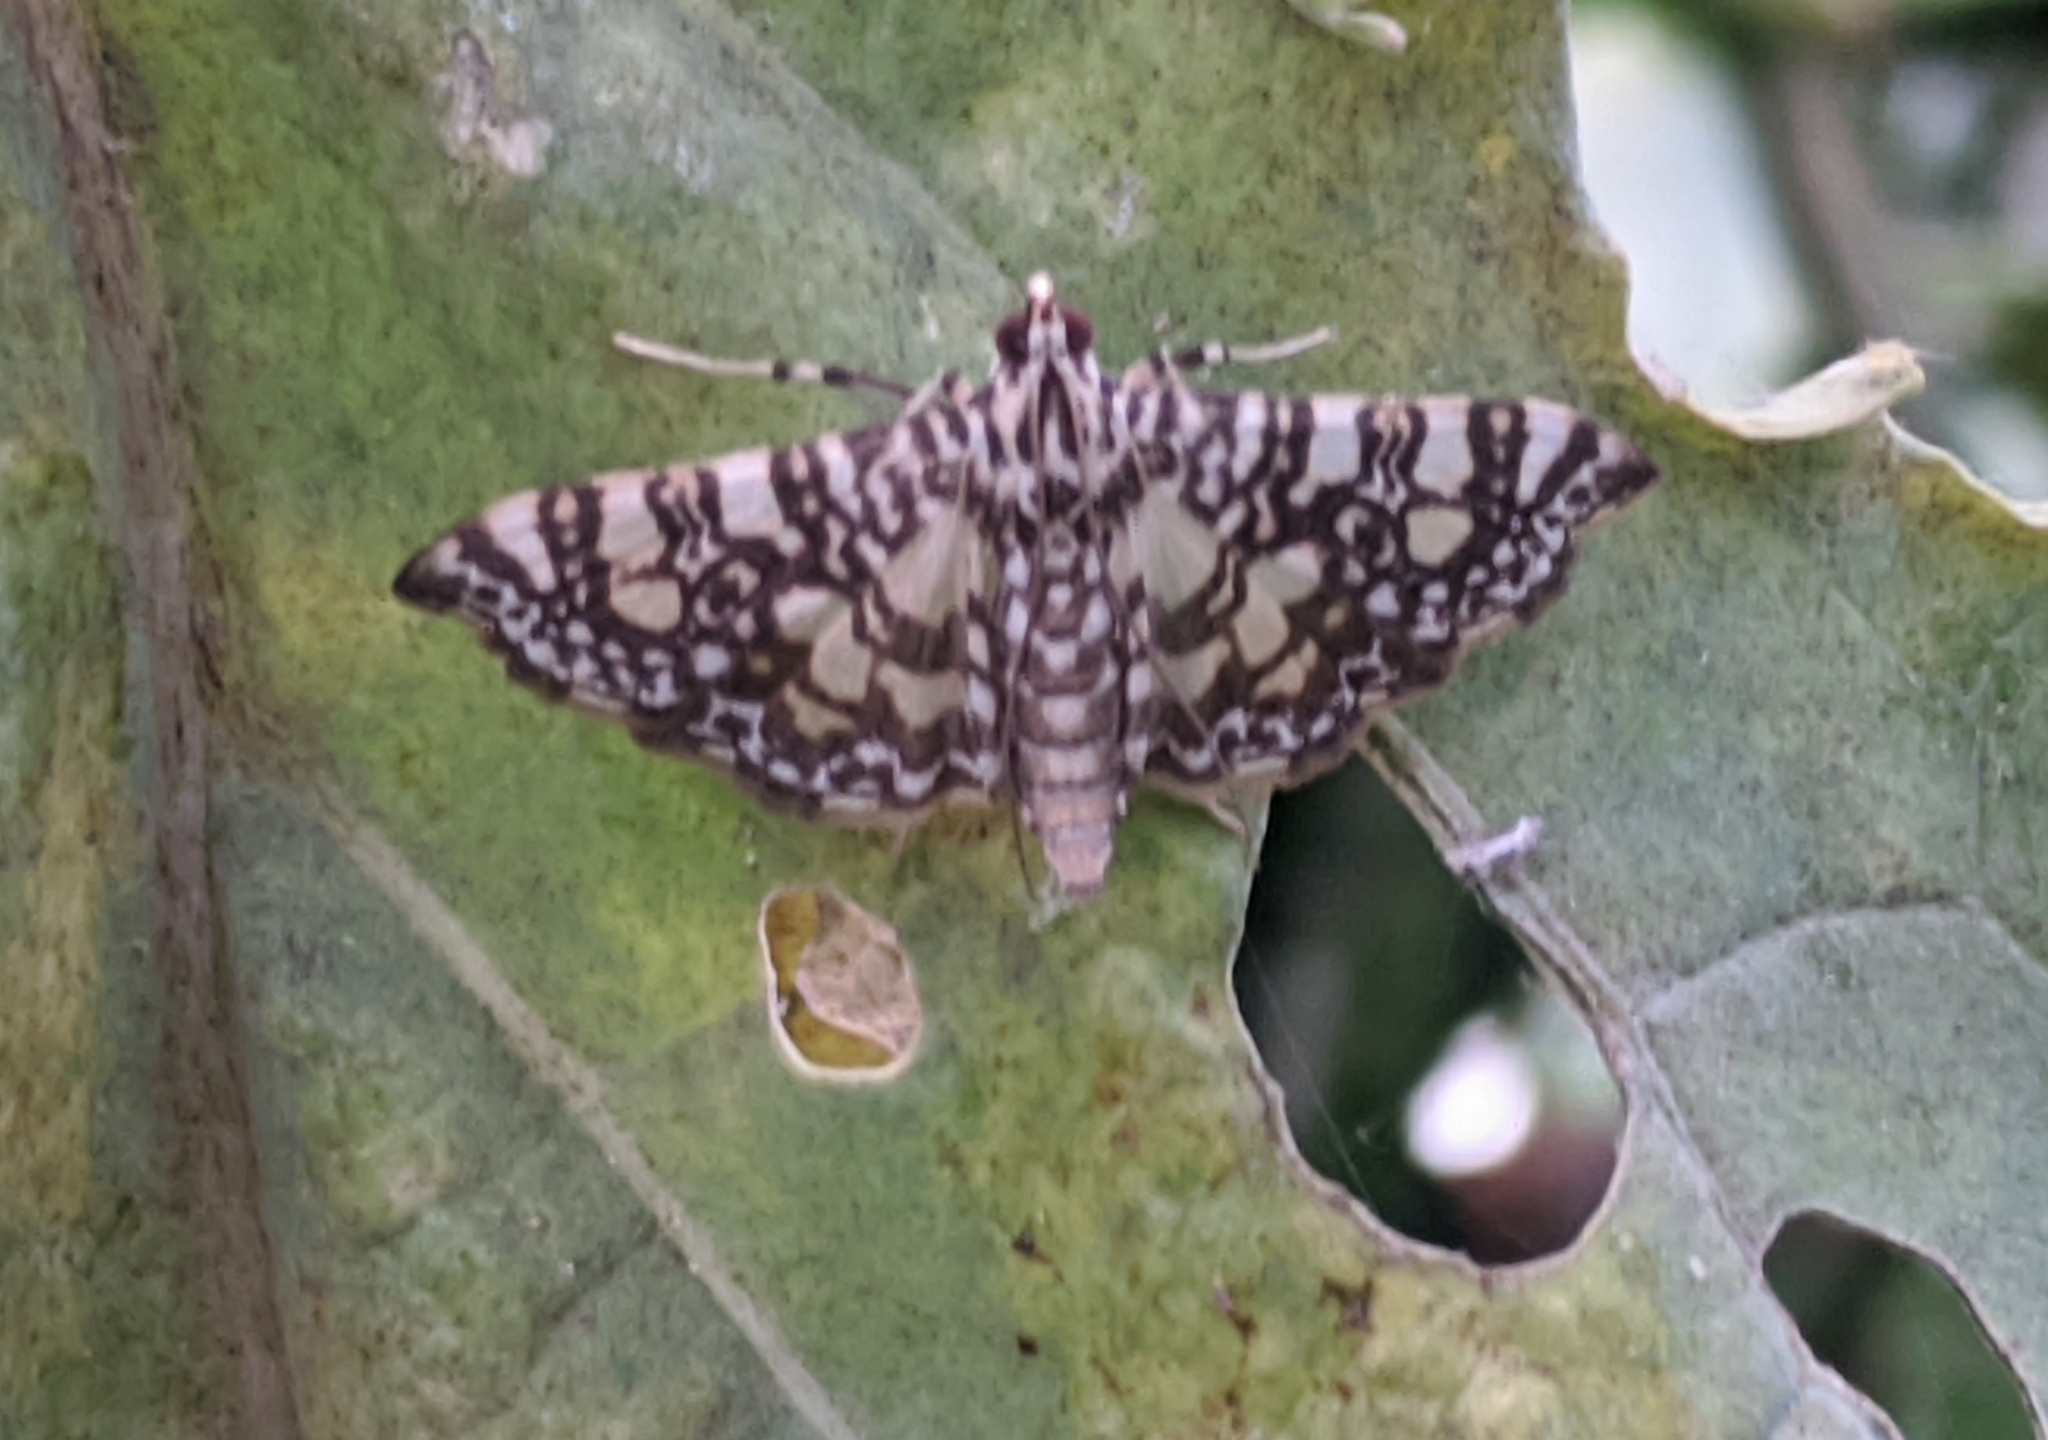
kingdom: Animalia
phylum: Arthropoda
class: Insecta
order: Lepidoptera
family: Crambidae
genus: Glyphodes
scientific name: Glyphodes onychinalis
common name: Swan plant moth
